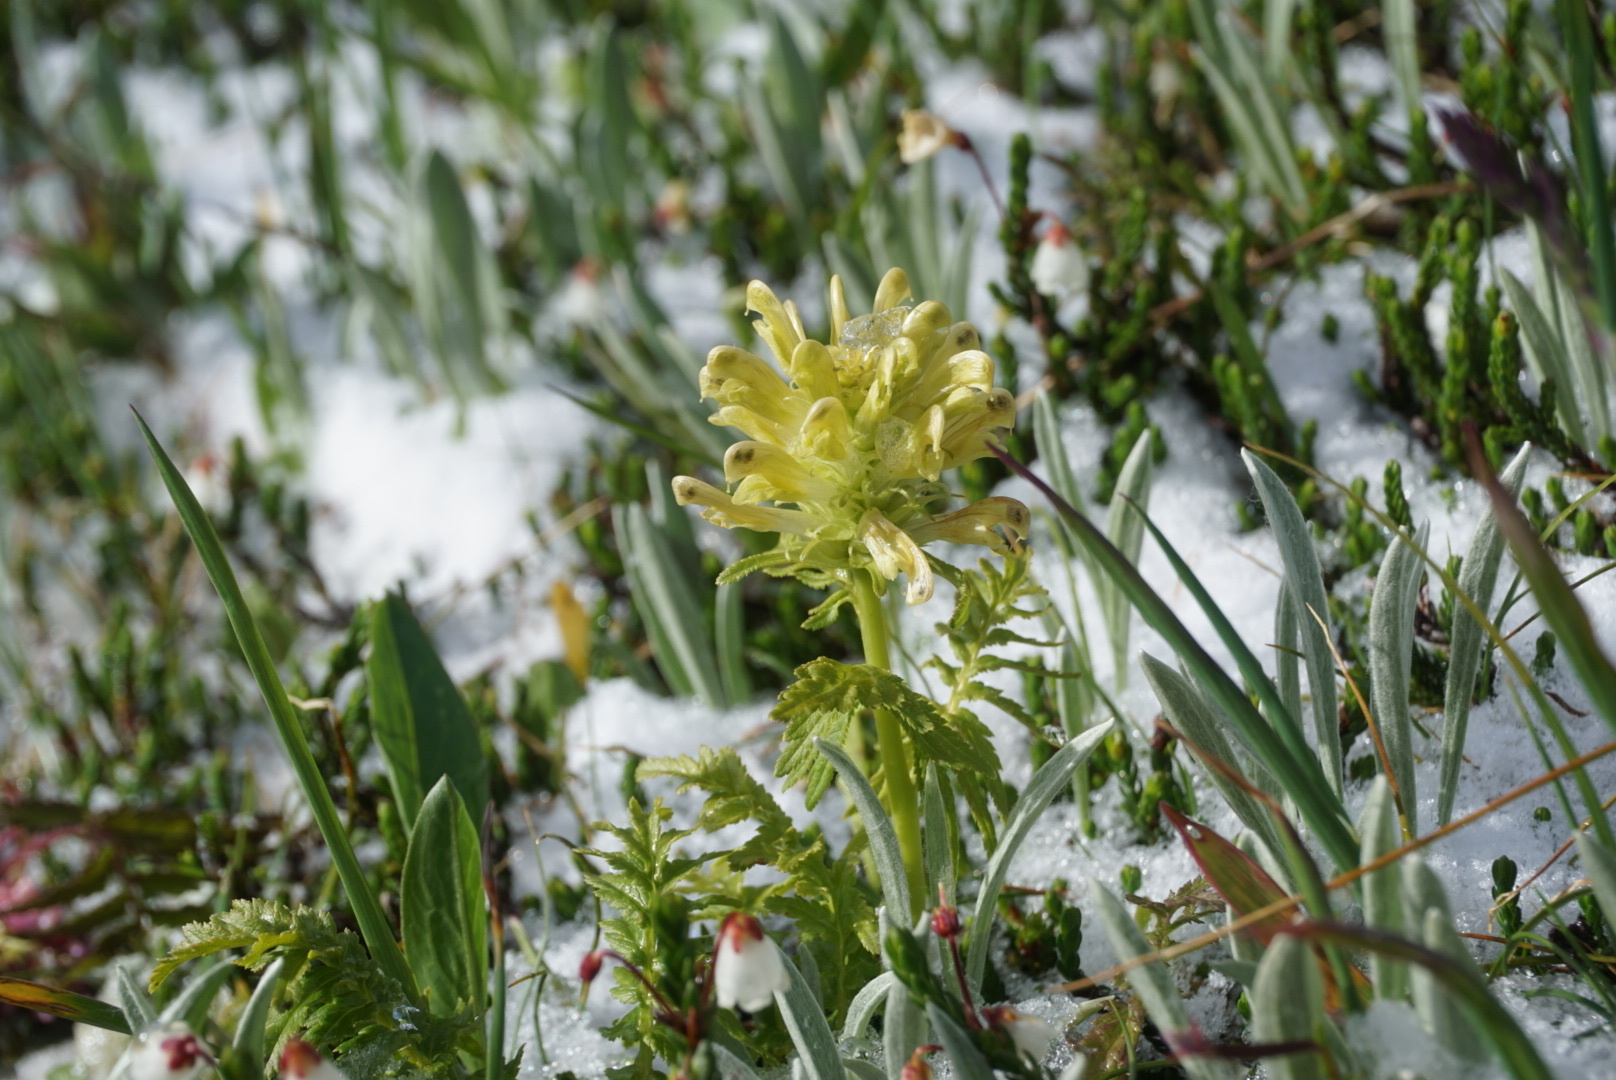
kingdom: Plantae
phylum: Tracheophyta
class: Magnoliopsida
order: Lamiales
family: Orobanchaceae
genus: Pedicularis
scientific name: Pedicularis bracteosa
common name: Bracted lousewort
